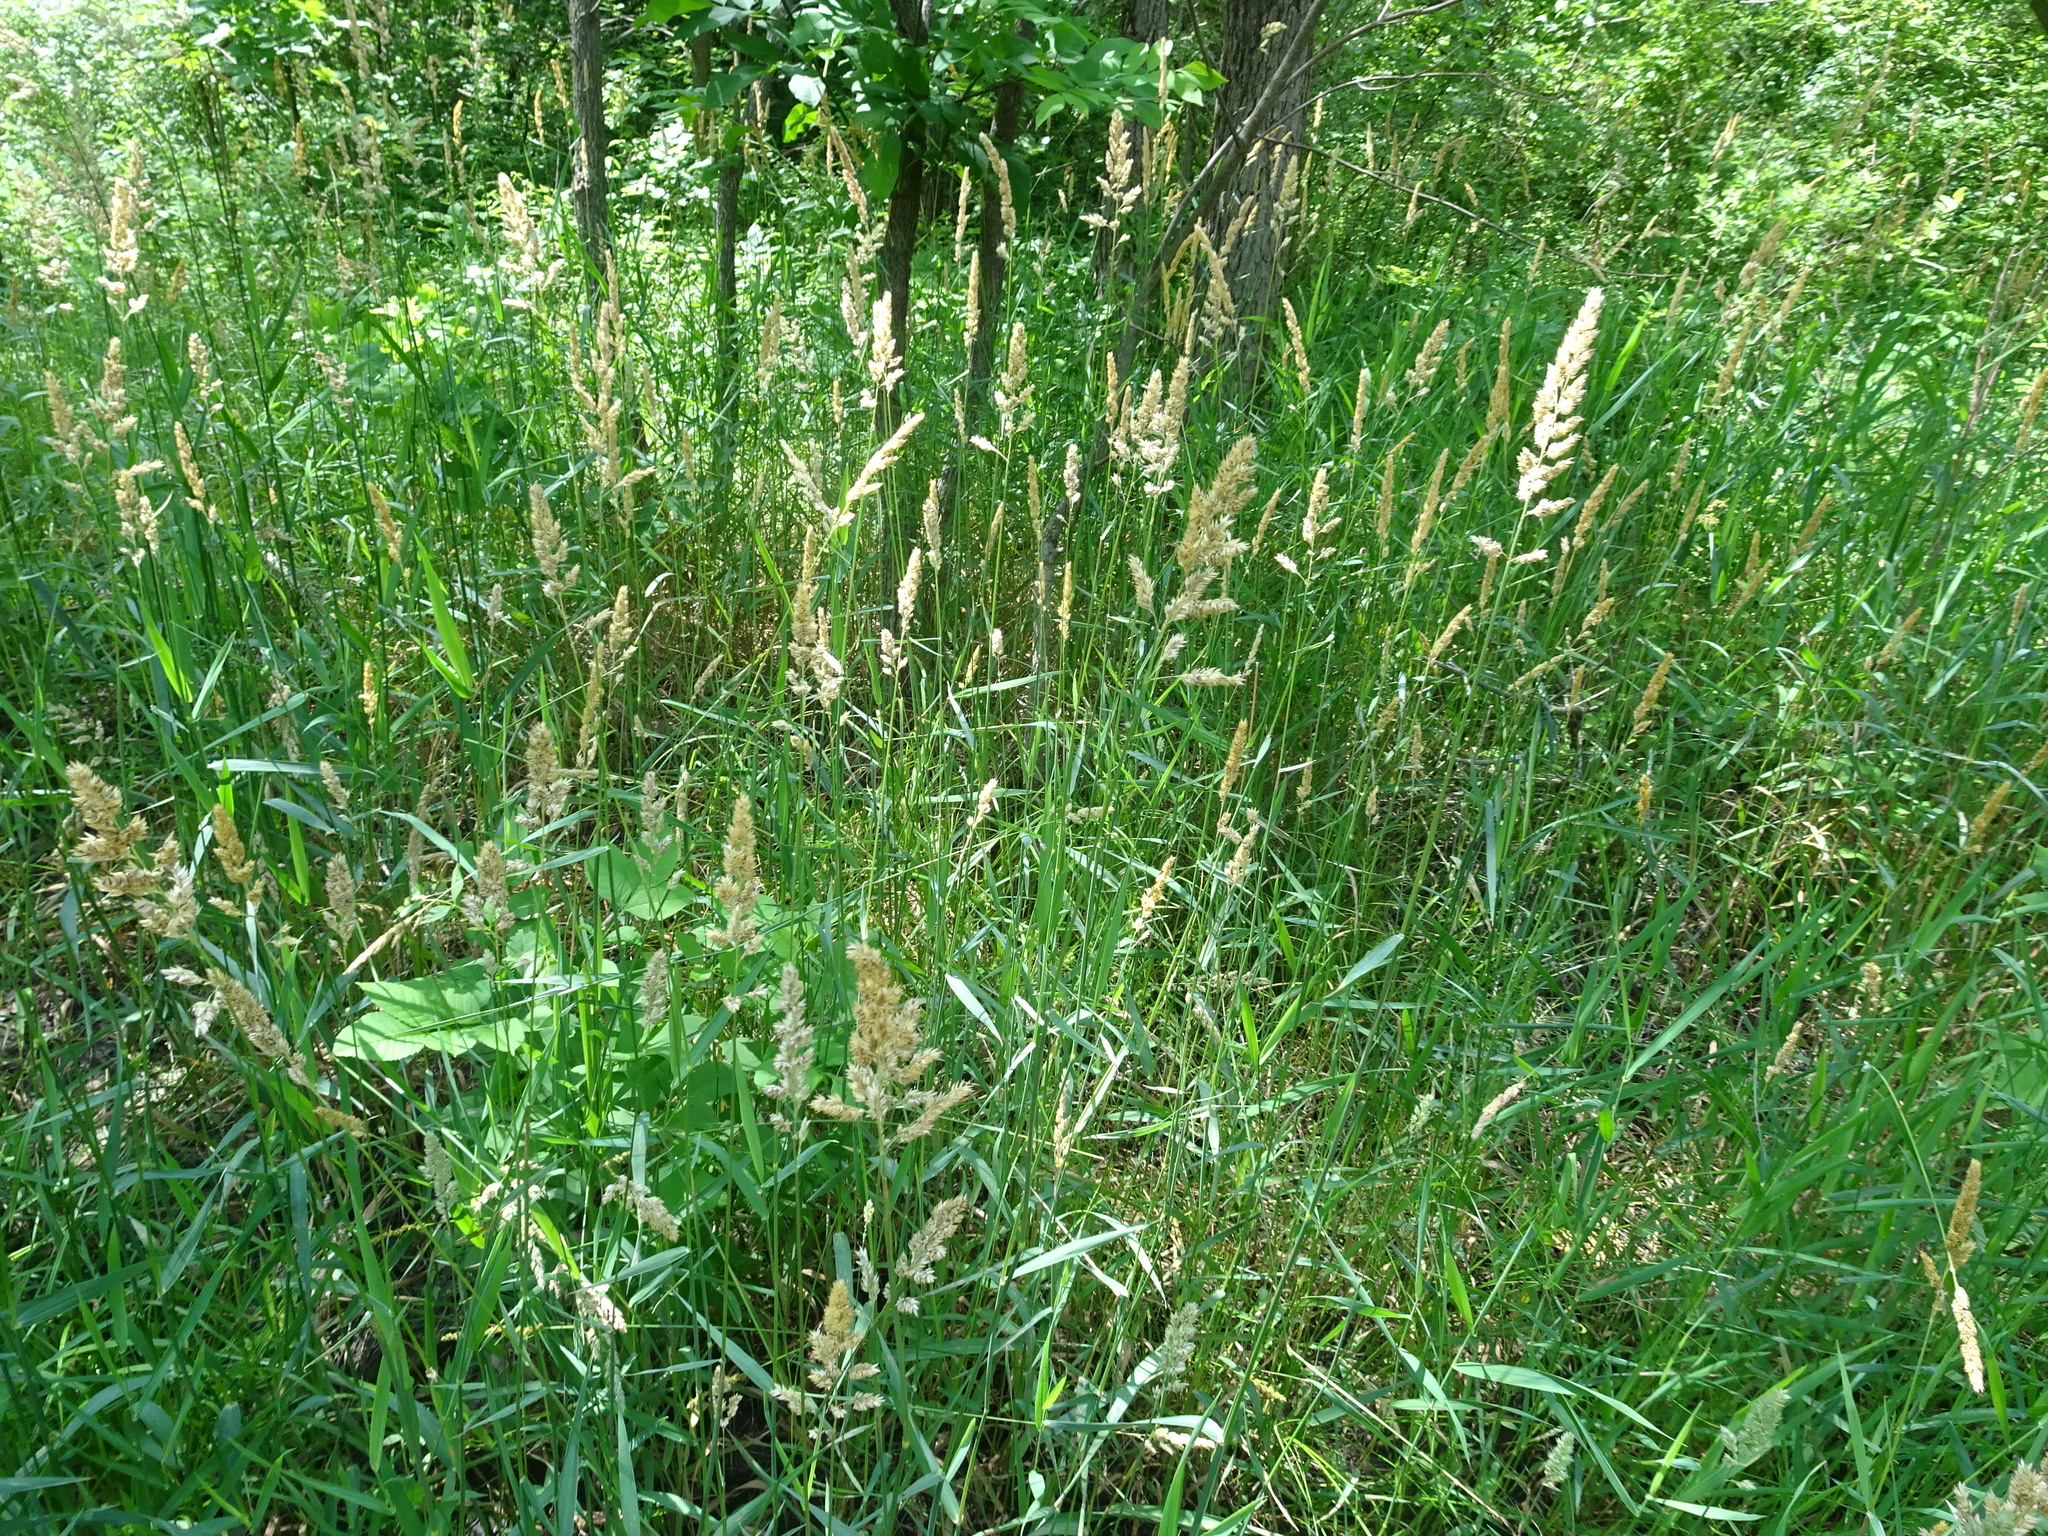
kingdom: Plantae
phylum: Tracheophyta
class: Liliopsida
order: Poales
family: Poaceae
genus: Phalaris
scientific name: Phalaris arundinacea
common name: Reed canary-grass
